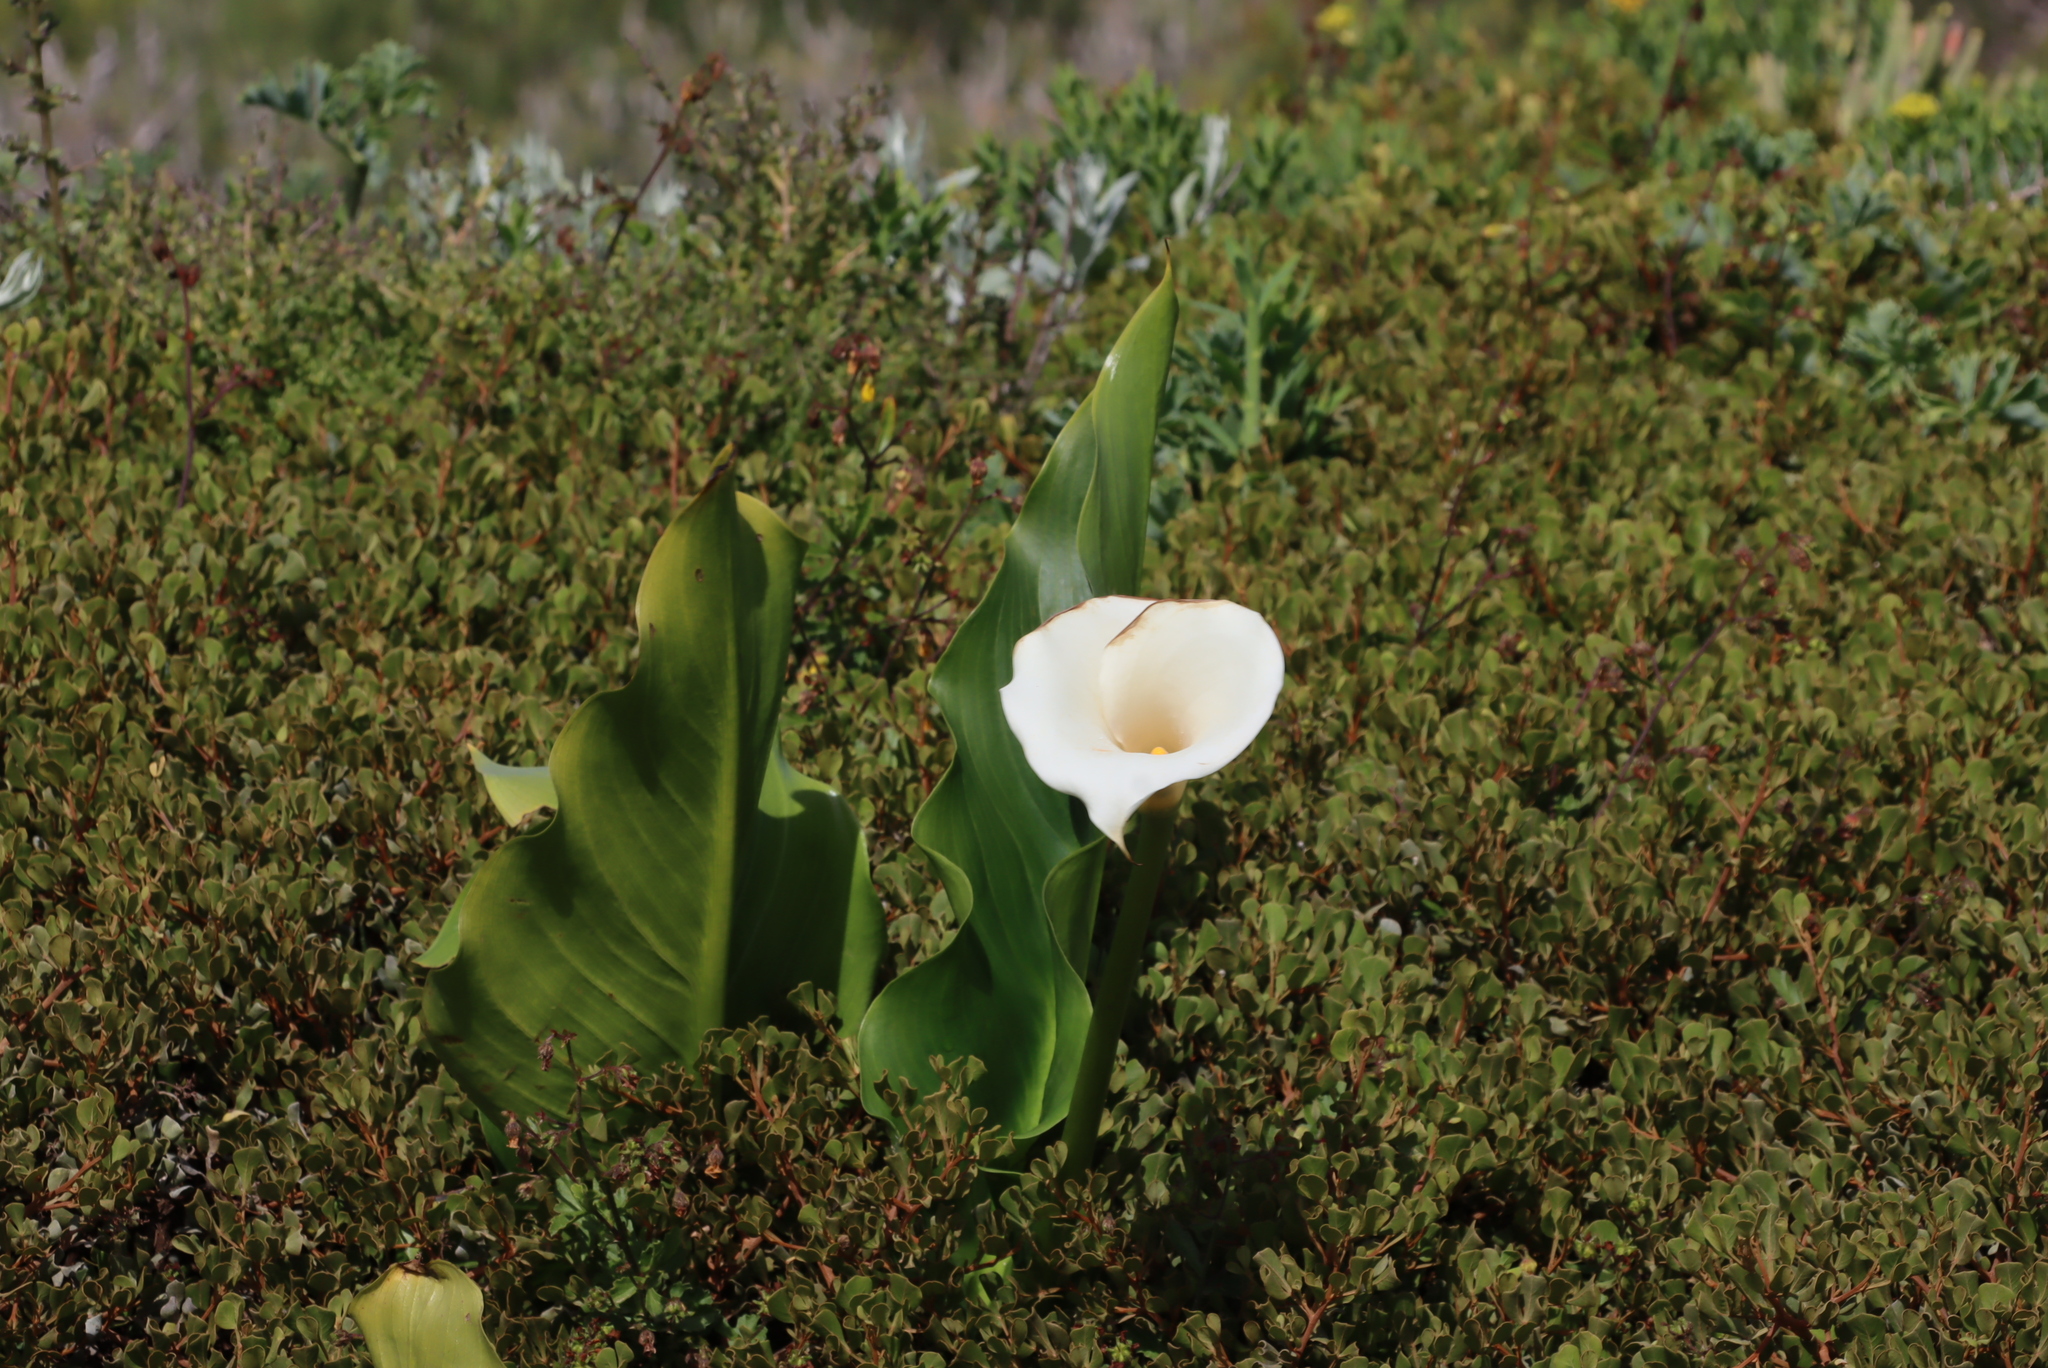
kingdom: Plantae
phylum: Tracheophyta
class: Liliopsida
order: Alismatales
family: Araceae
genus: Zantedeschia
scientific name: Zantedeschia aethiopica
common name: Altar-lily
